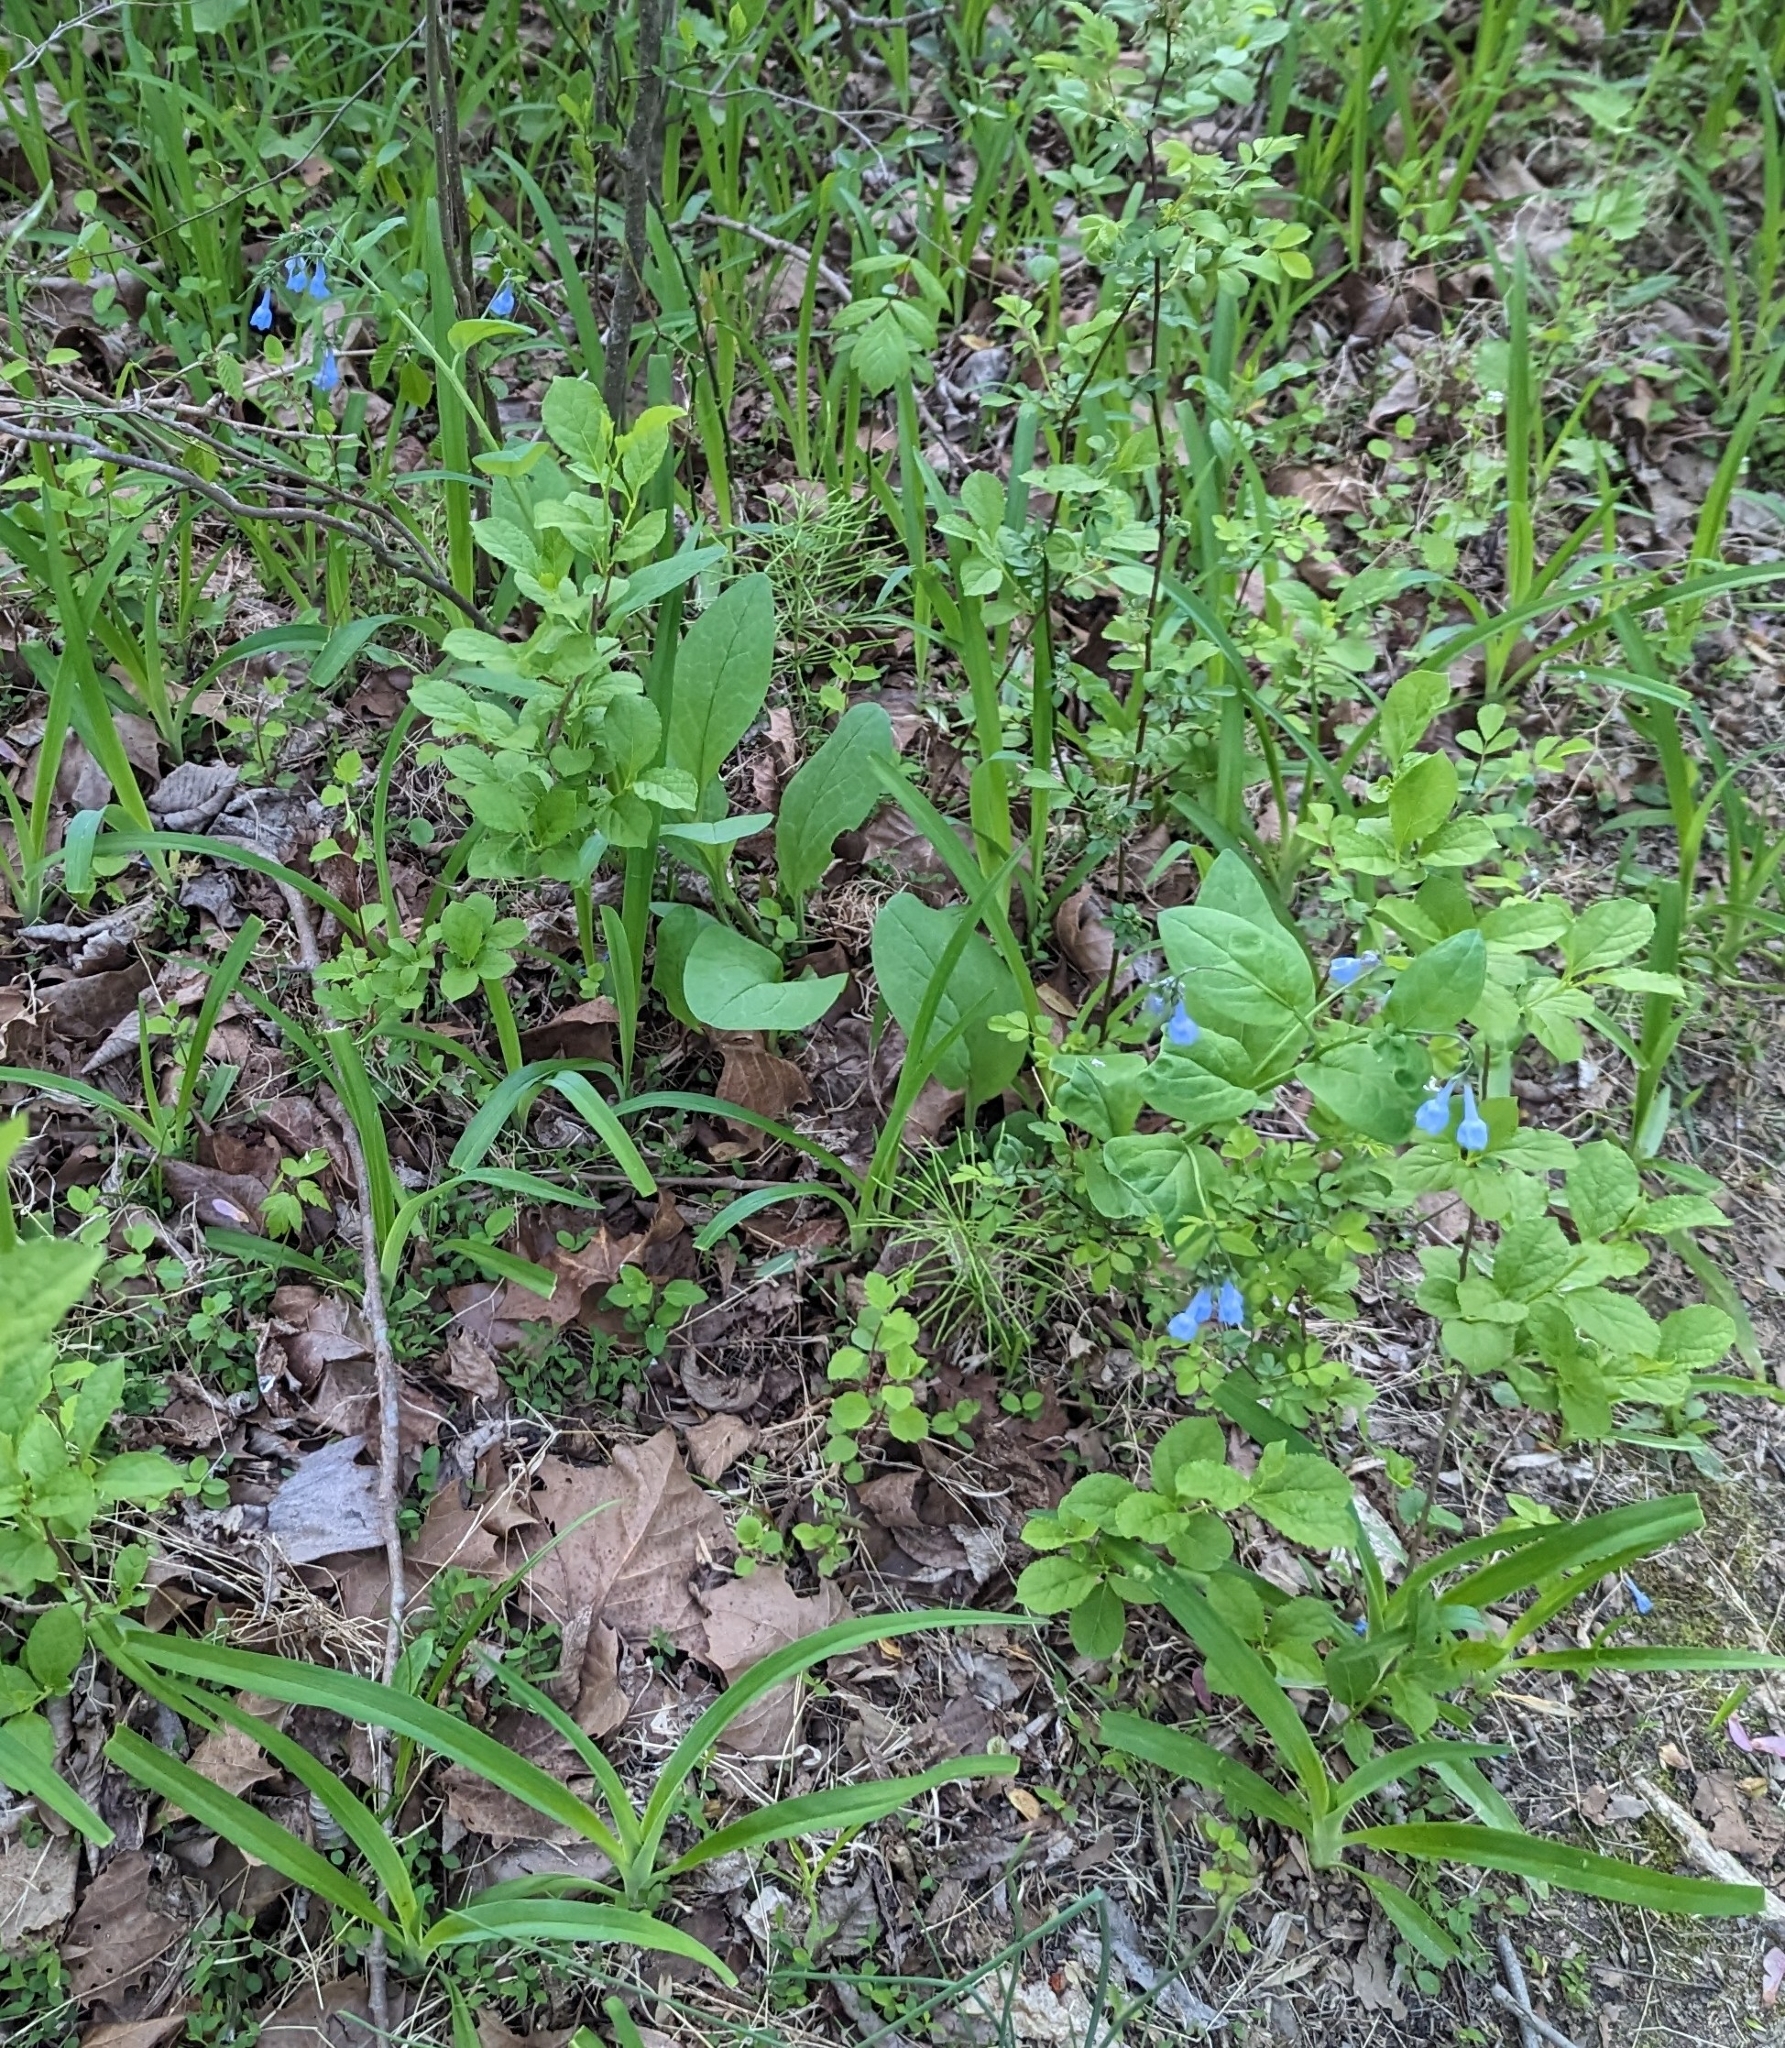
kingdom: Plantae
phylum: Tracheophyta
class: Magnoliopsida
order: Boraginales
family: Boraginaceae
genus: Mertensia
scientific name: Mertensia virginica
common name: Virginia bluebells
